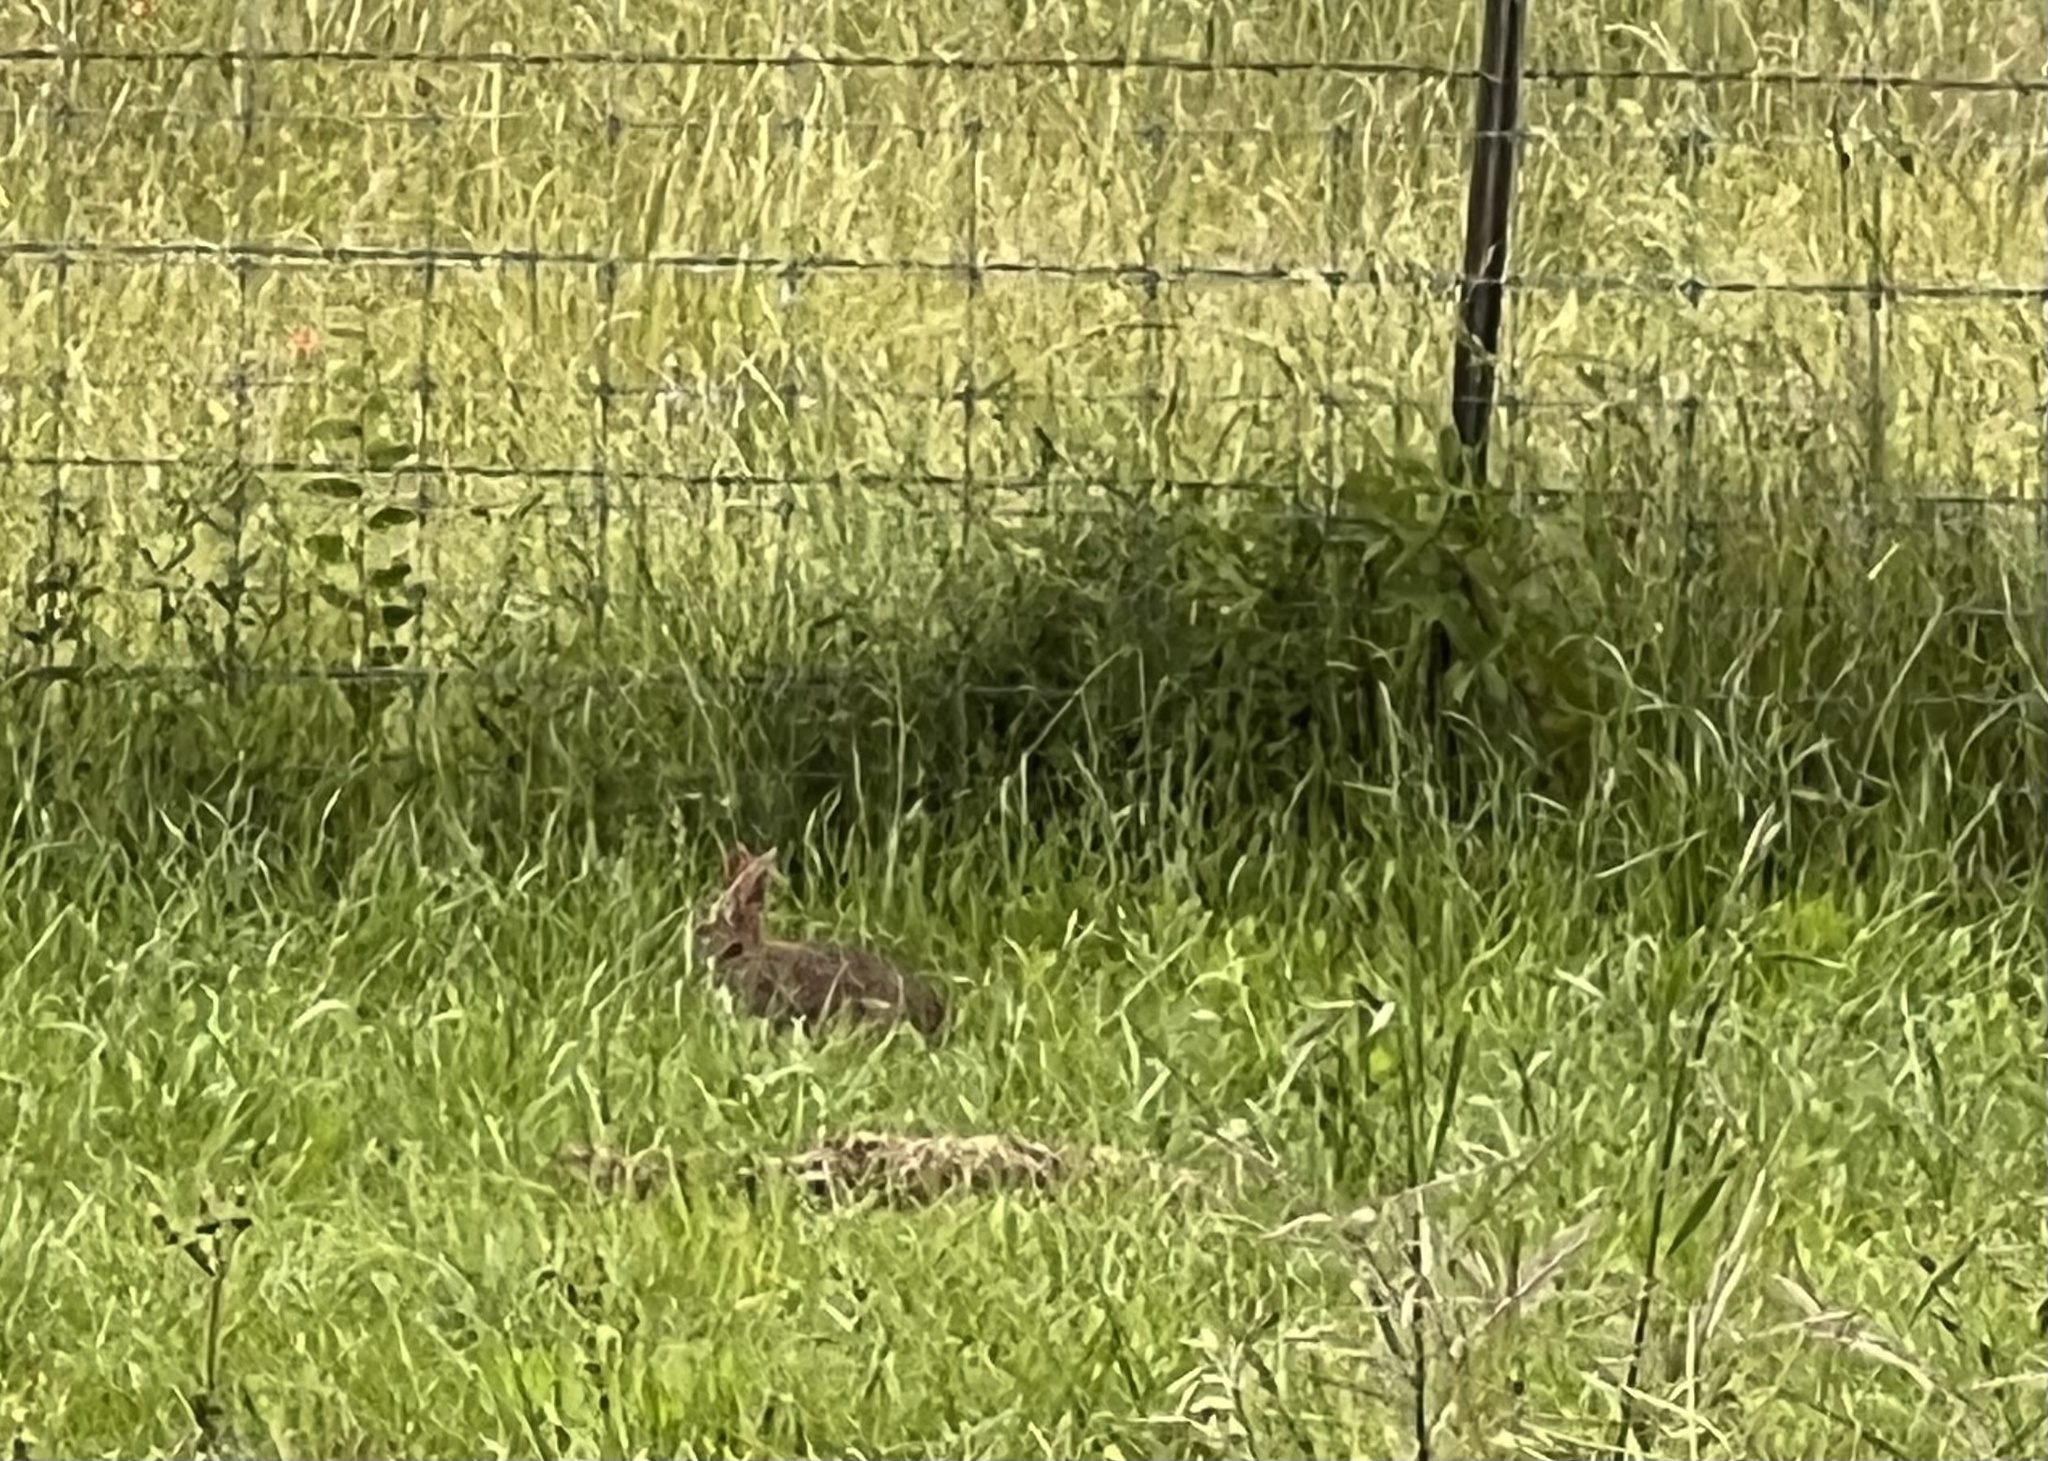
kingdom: Animalia
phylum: Chordata
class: Mammalia
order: Lagomorpha
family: Leporidae
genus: Sylvilagus
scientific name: Sylvilagus floridanus
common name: Eastern cottontail
